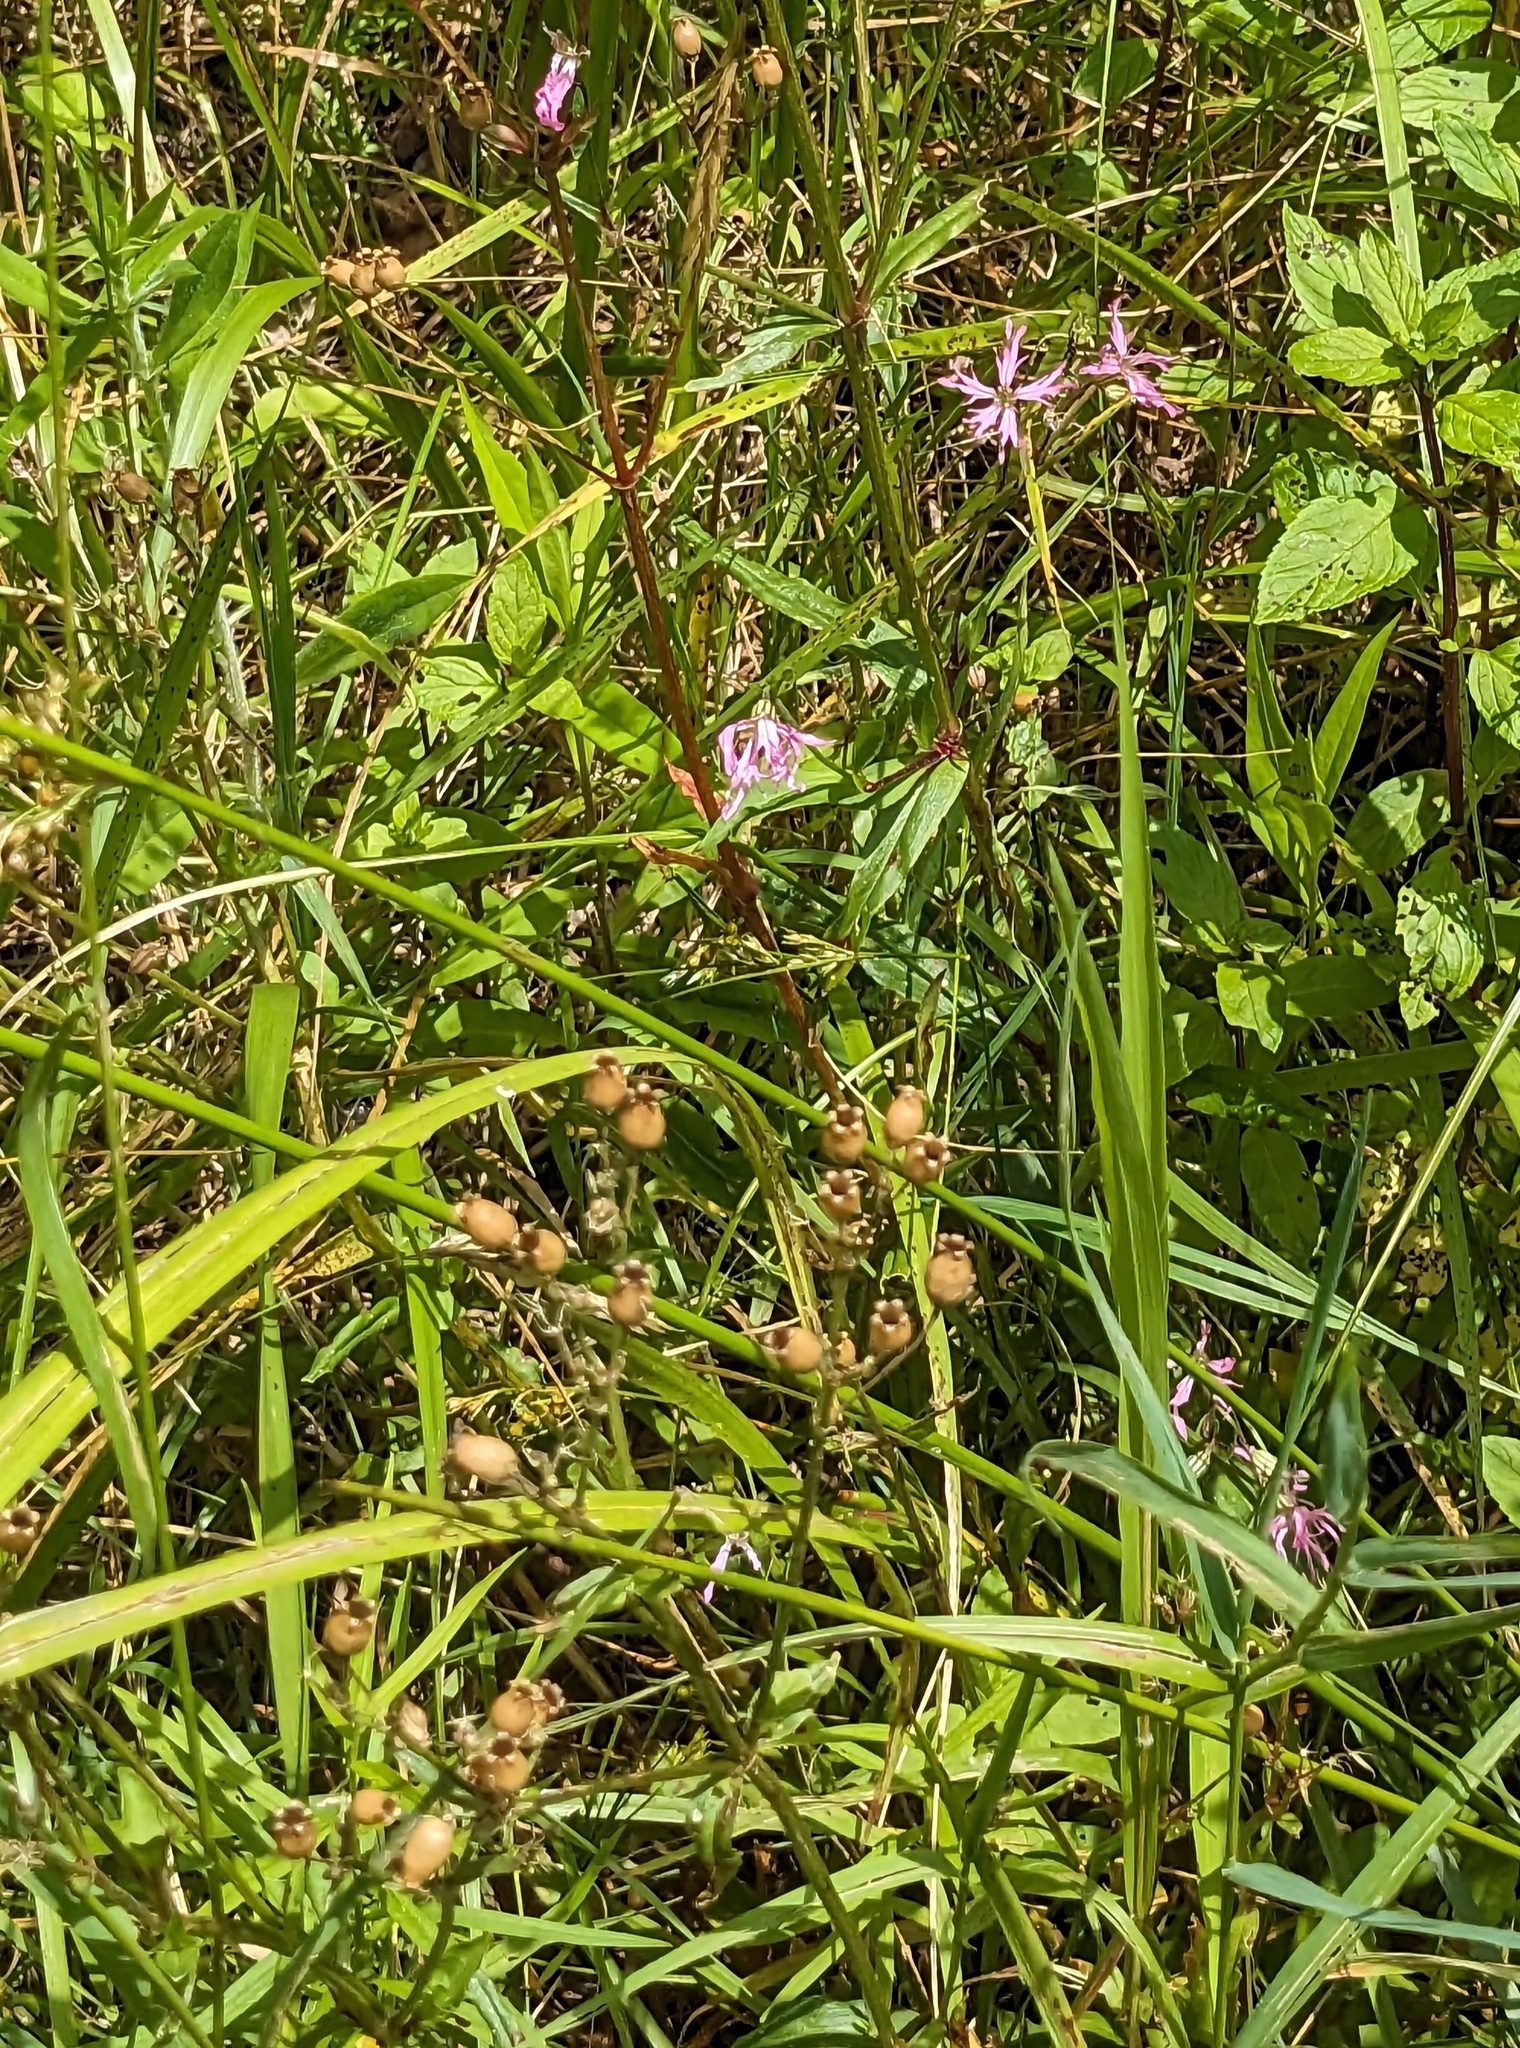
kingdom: Plantae
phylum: Tracheophyta
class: Magnoliopsida
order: Caryophyllales
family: Caryophyllaceae
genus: Silene
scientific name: Silene flos-cuculi
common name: Ragged-robin
